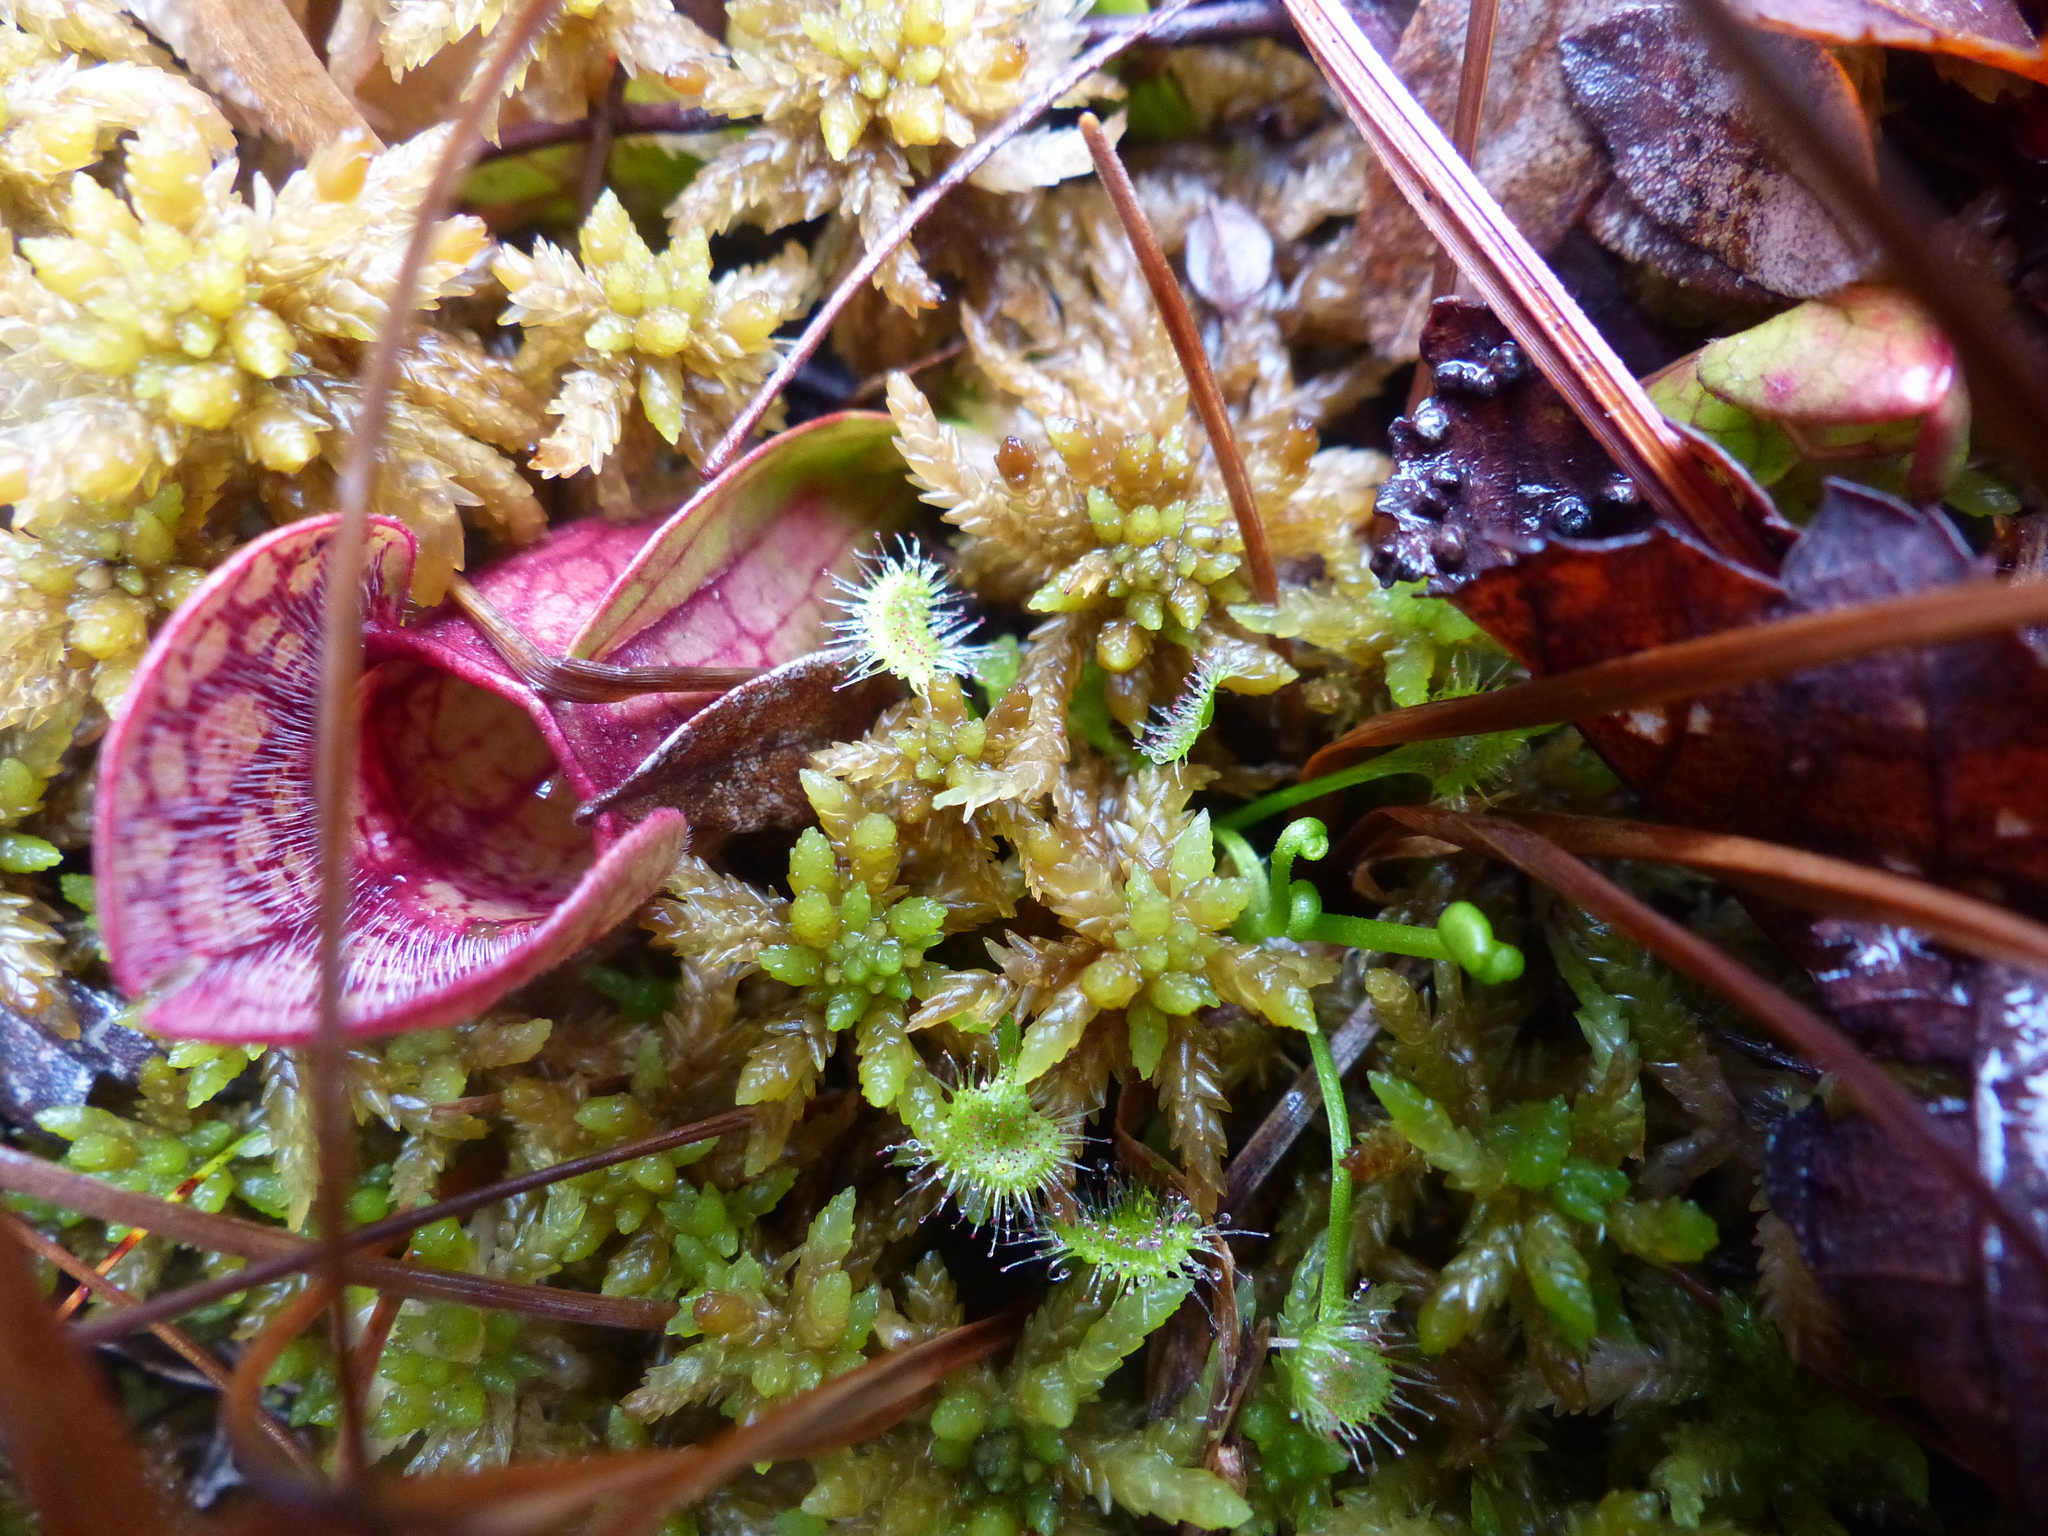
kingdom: Plantae
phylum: Tracheophyta
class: Magnoliopsida
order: Caryophyllales
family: Droseraceae
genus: Drosera
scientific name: Drosera rotundifolia
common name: Round-leaved sundew
